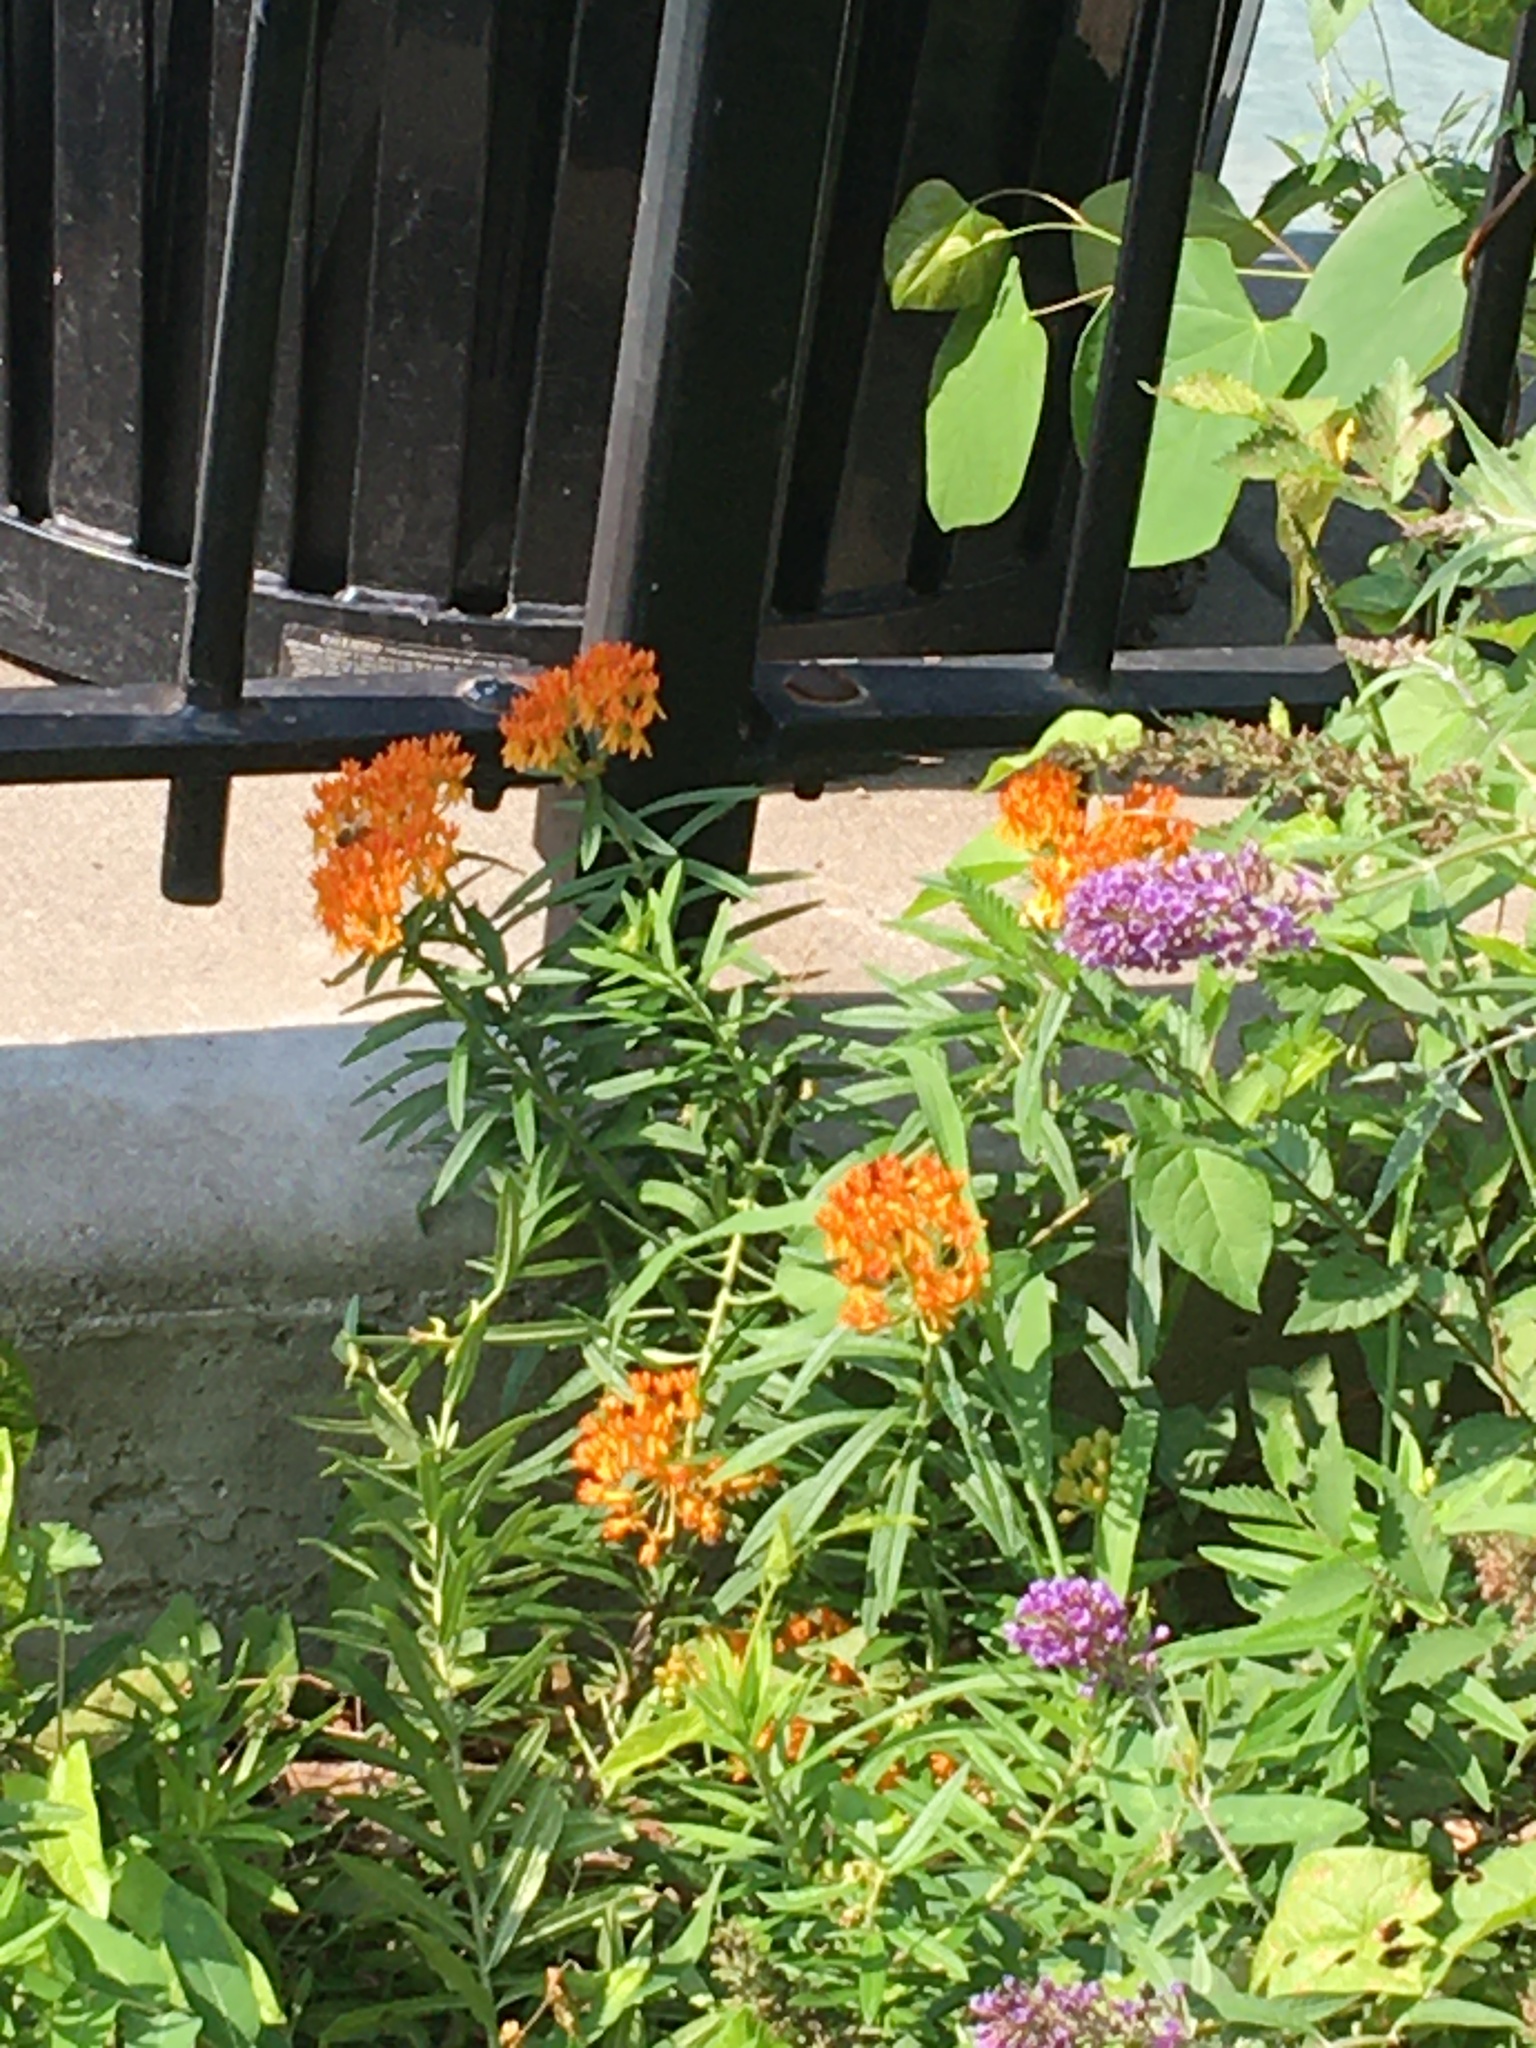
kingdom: Plantae
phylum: Tracheophyta
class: Magnoliopsida
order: Gentianales
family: Apocynaceae
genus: Asclepias
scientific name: Asclepias tuberosa
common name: Butterfly milkweed
